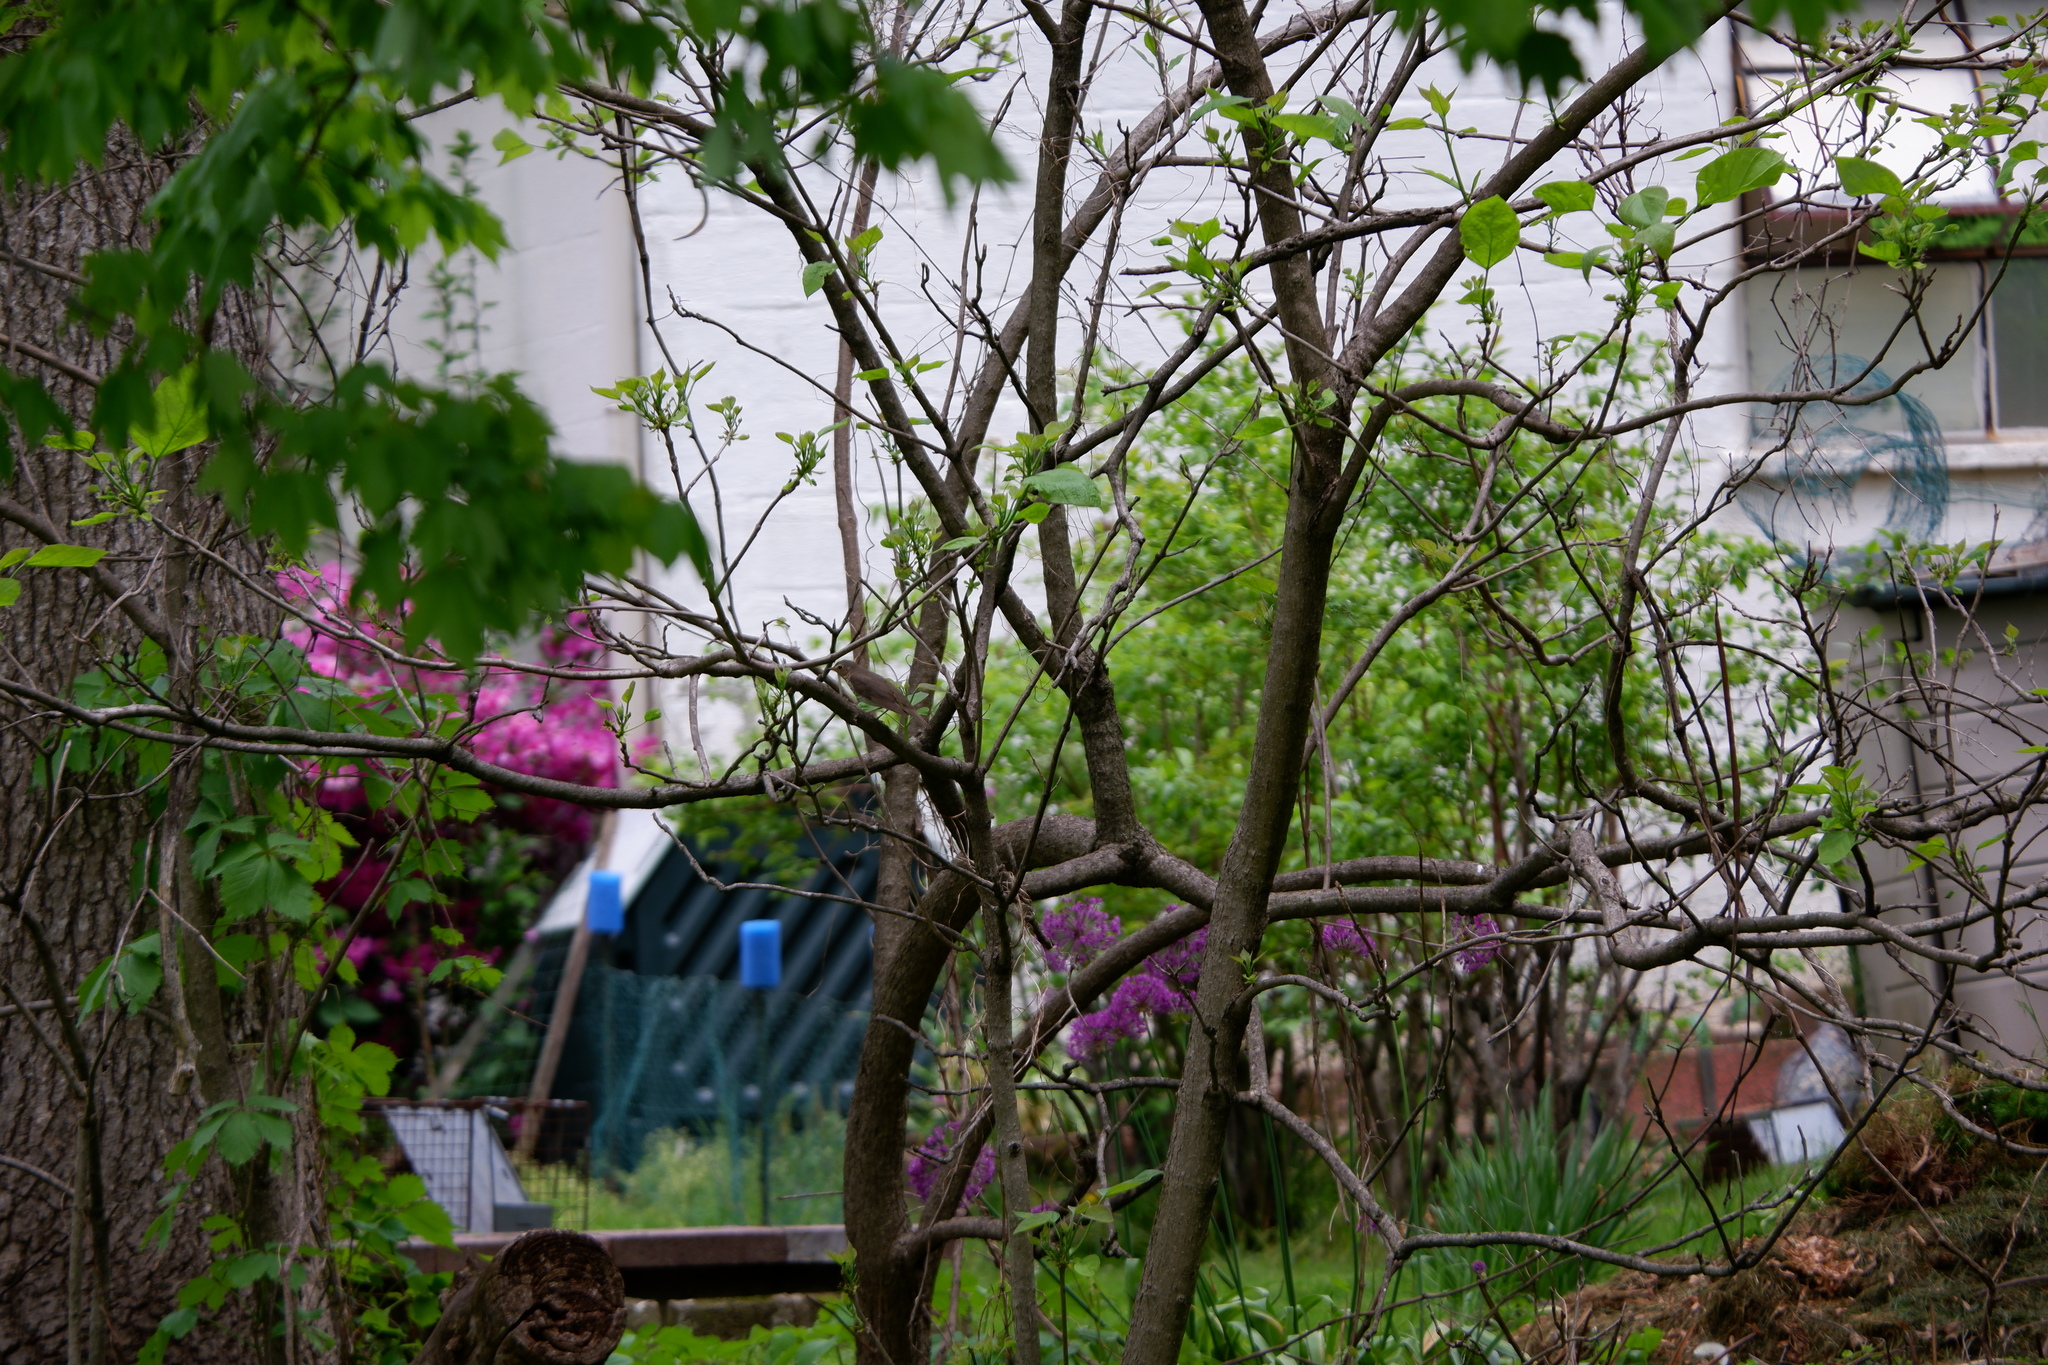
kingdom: Animalia
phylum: Chordata
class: Aves
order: Passeriformes
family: Turdidae
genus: Catharus
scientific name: Catharus ustulatus
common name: Swainson's thrush
